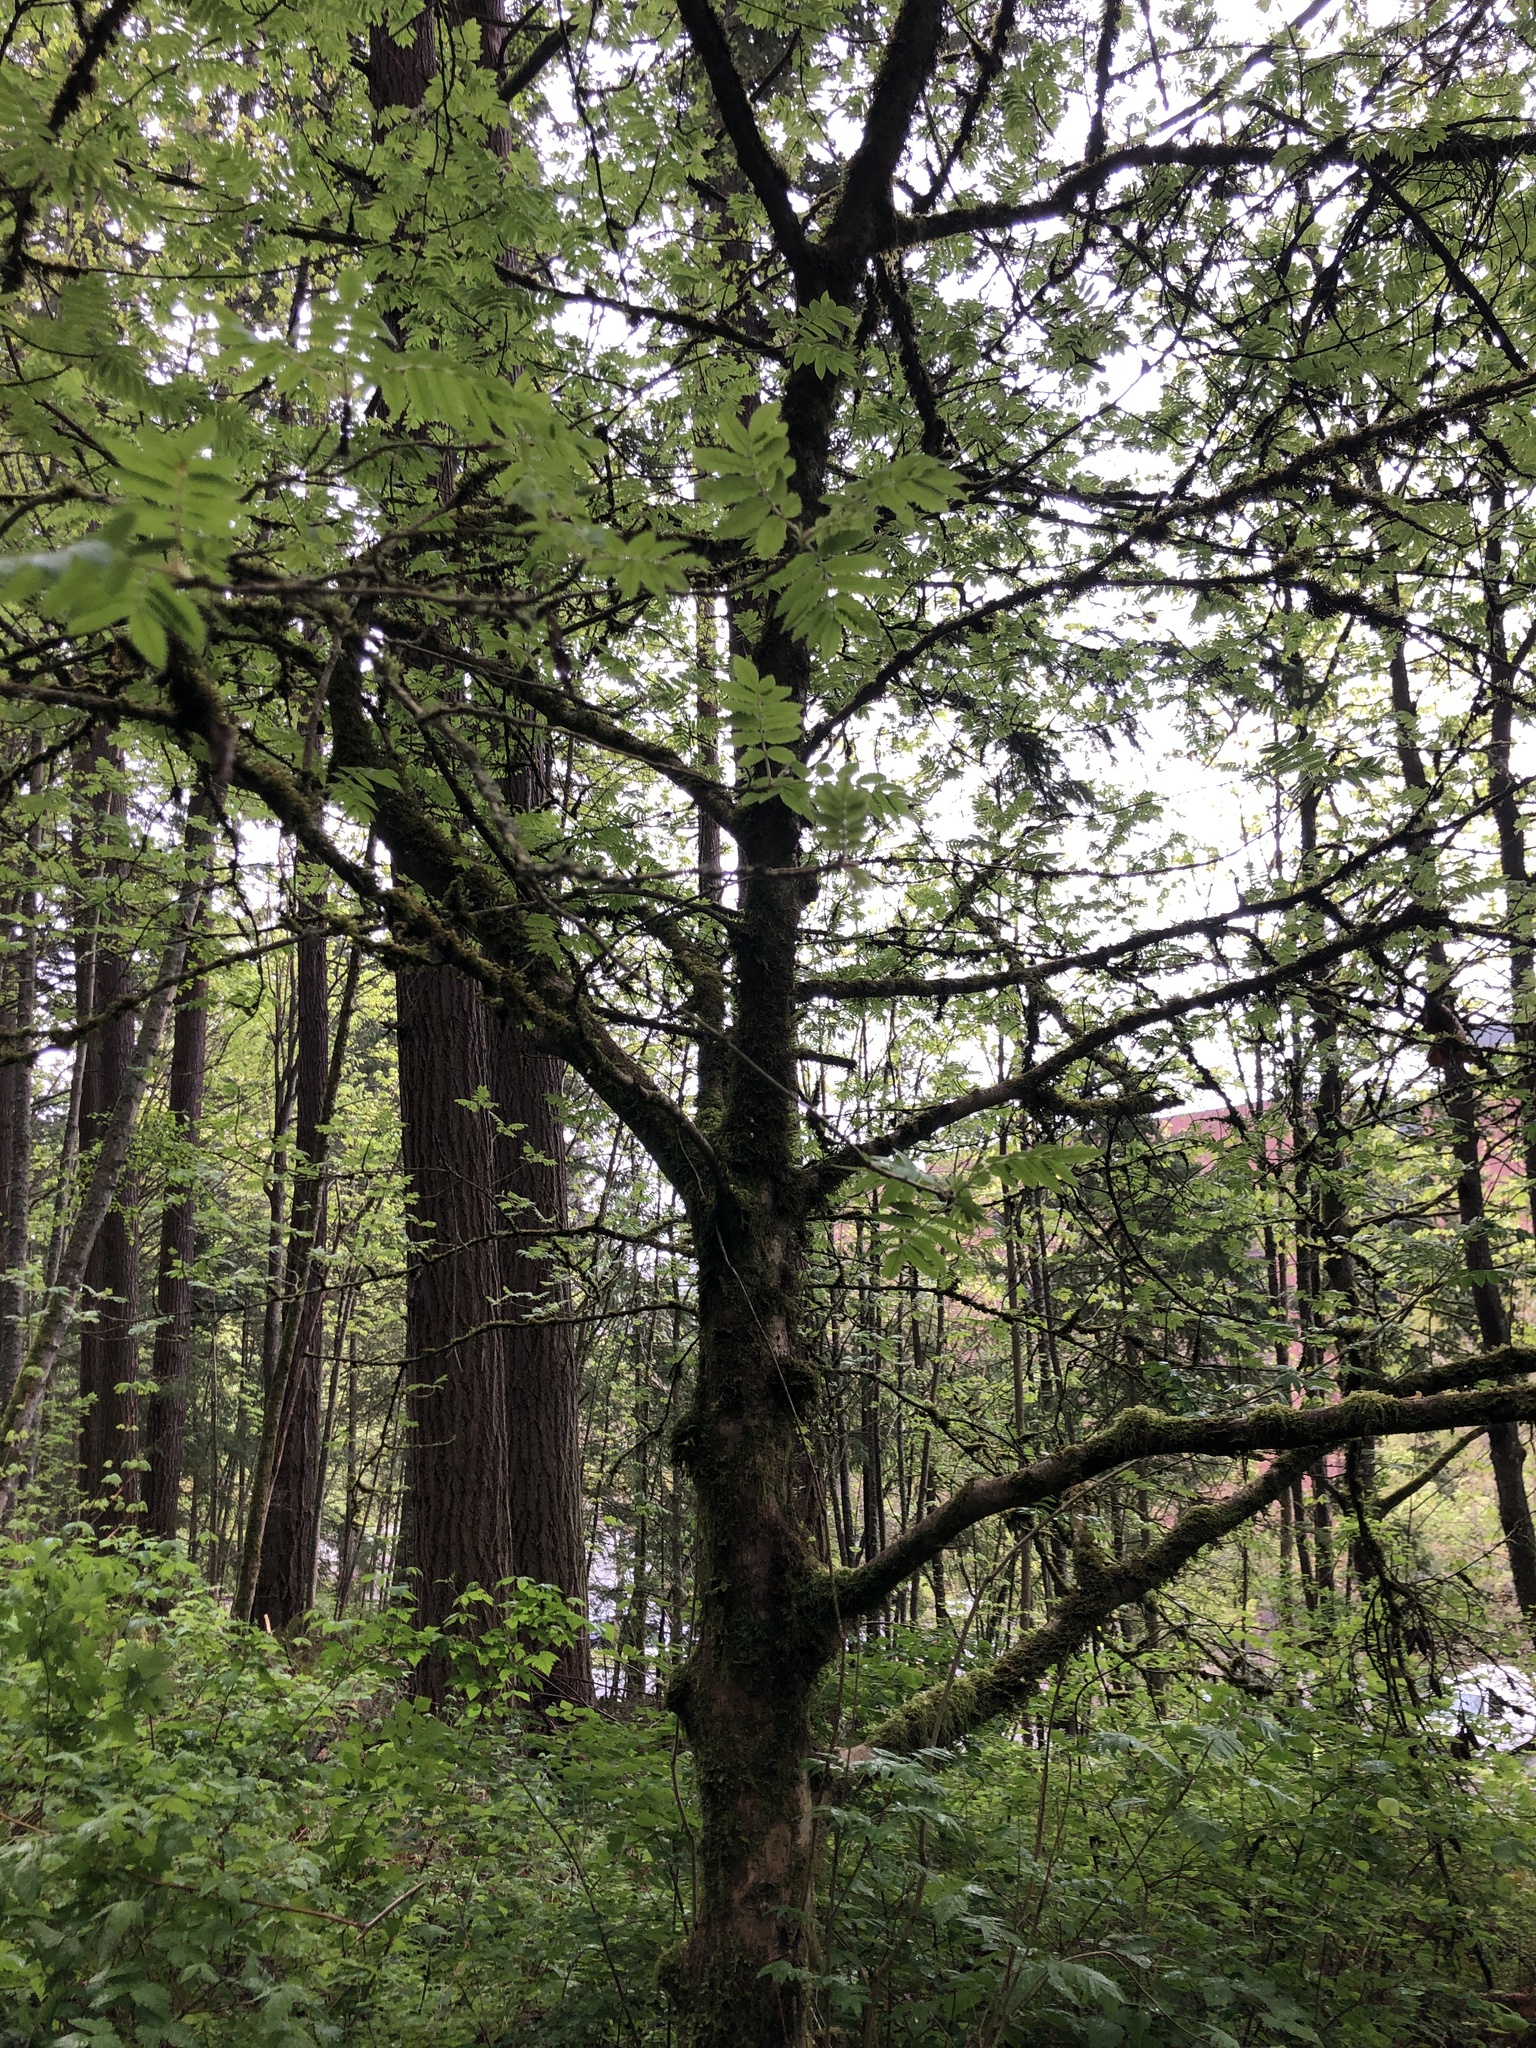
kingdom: Plantae
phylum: Tracheophyta
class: Magnoliopsida
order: Rosales
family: Rosaceae
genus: Sorbus
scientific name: Sorbus aucuparia
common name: Rowan
